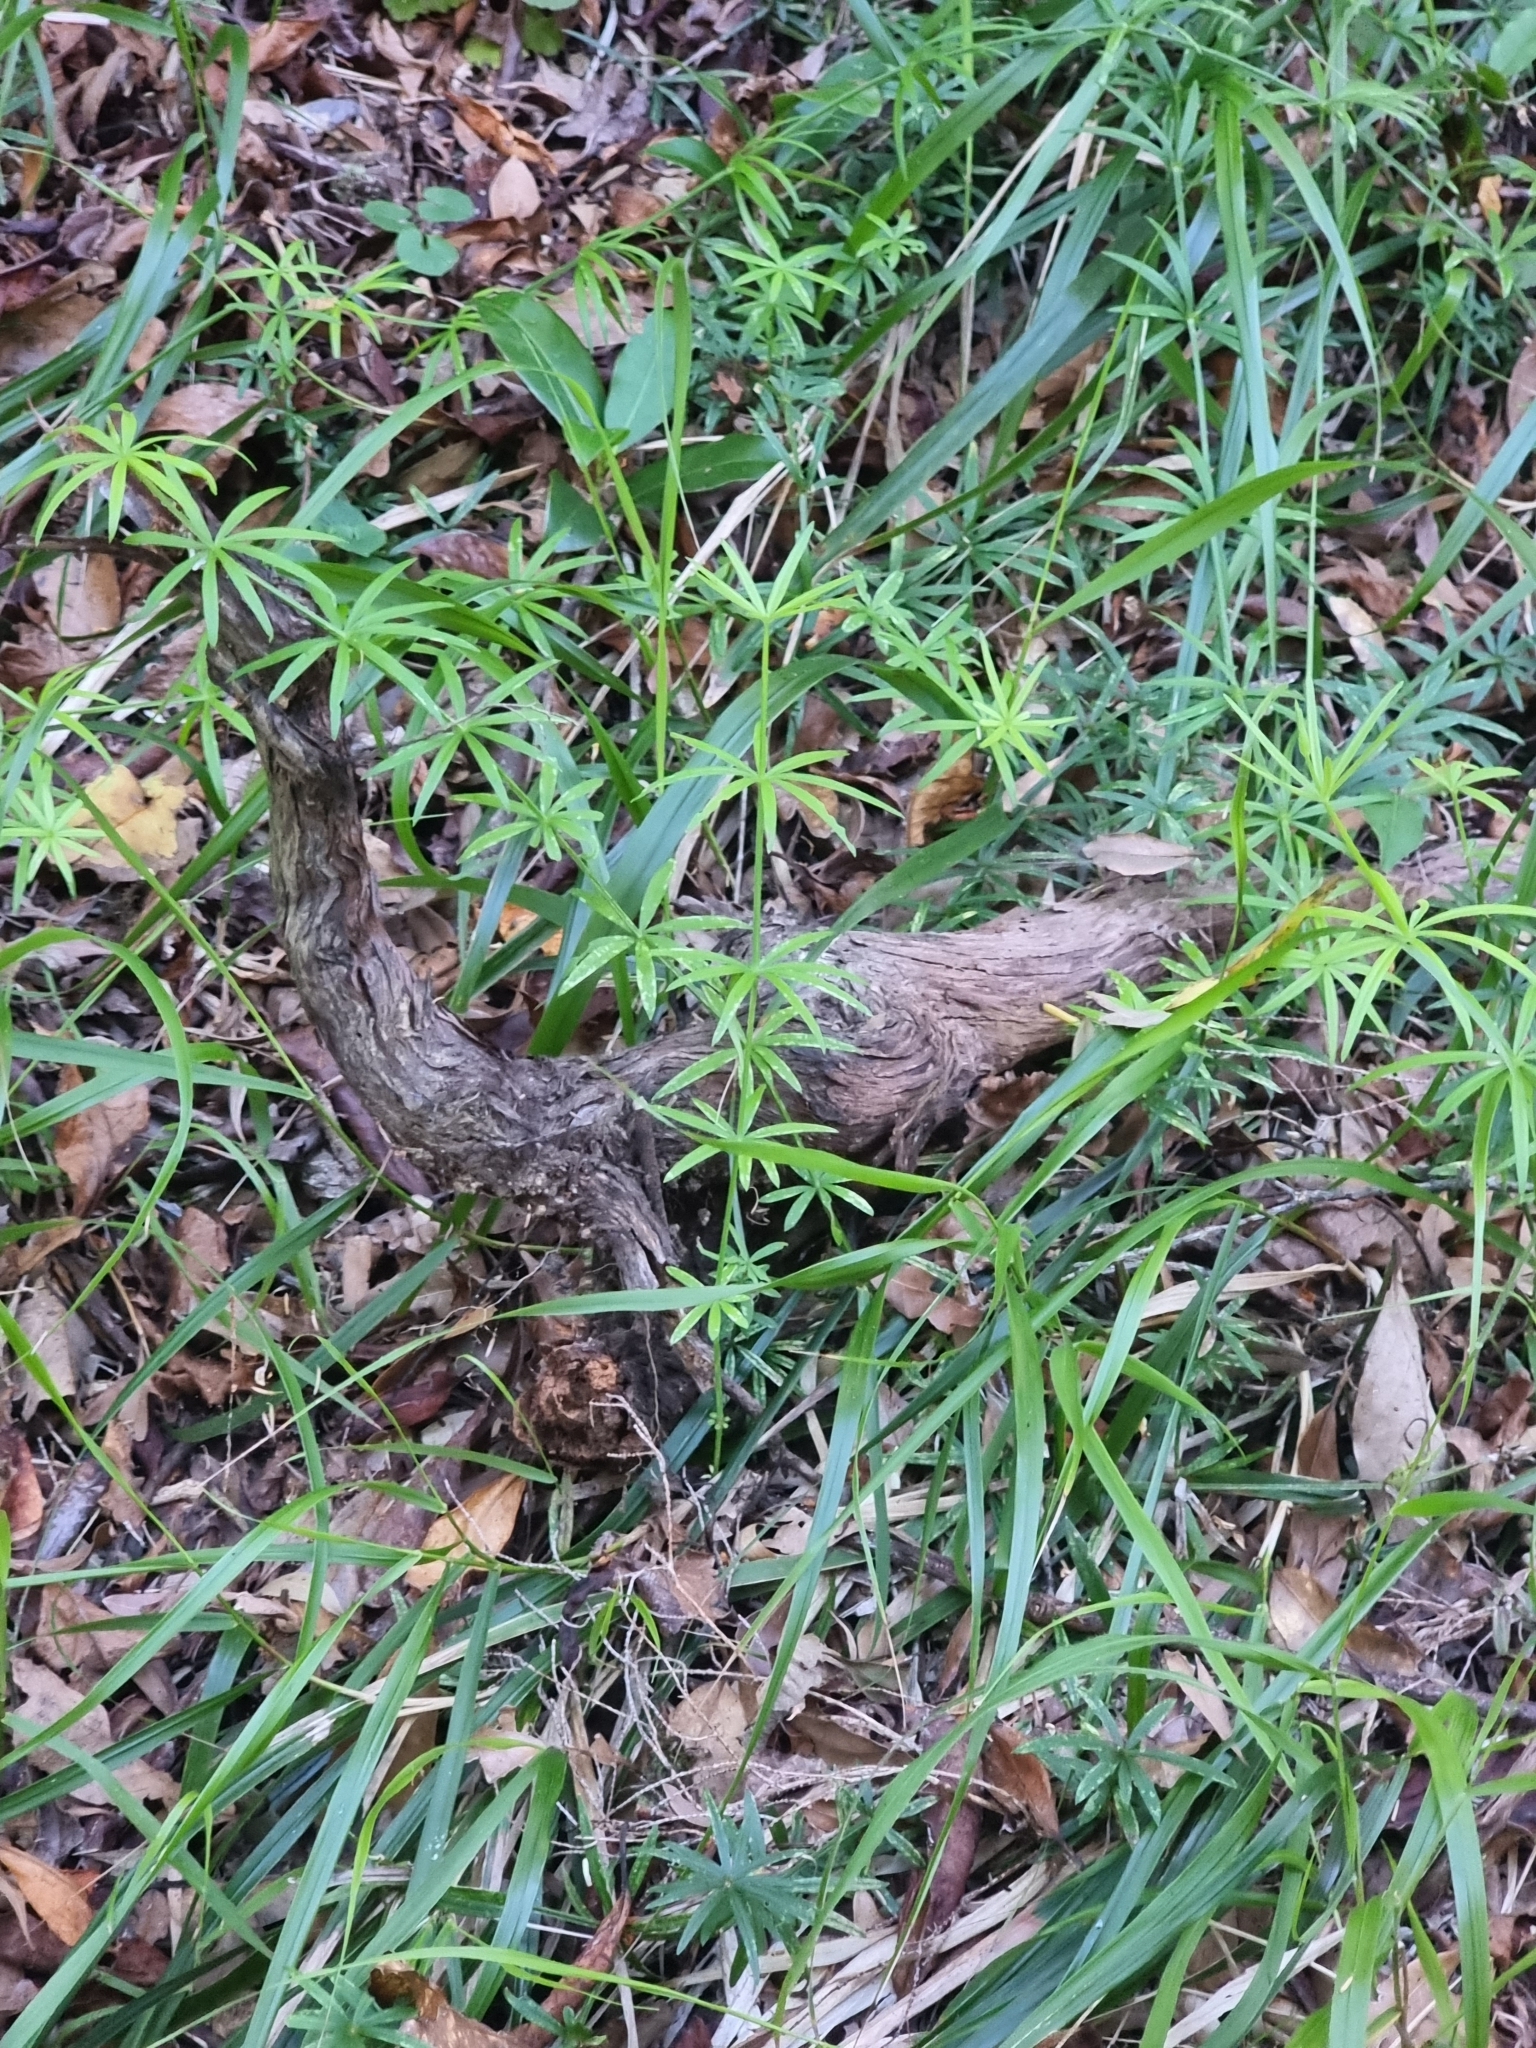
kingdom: Plantae
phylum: Tracheophyta
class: Magnoliopsida
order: Gentianales
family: Rubiaceae
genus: Rubia
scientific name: Rubia occidens
